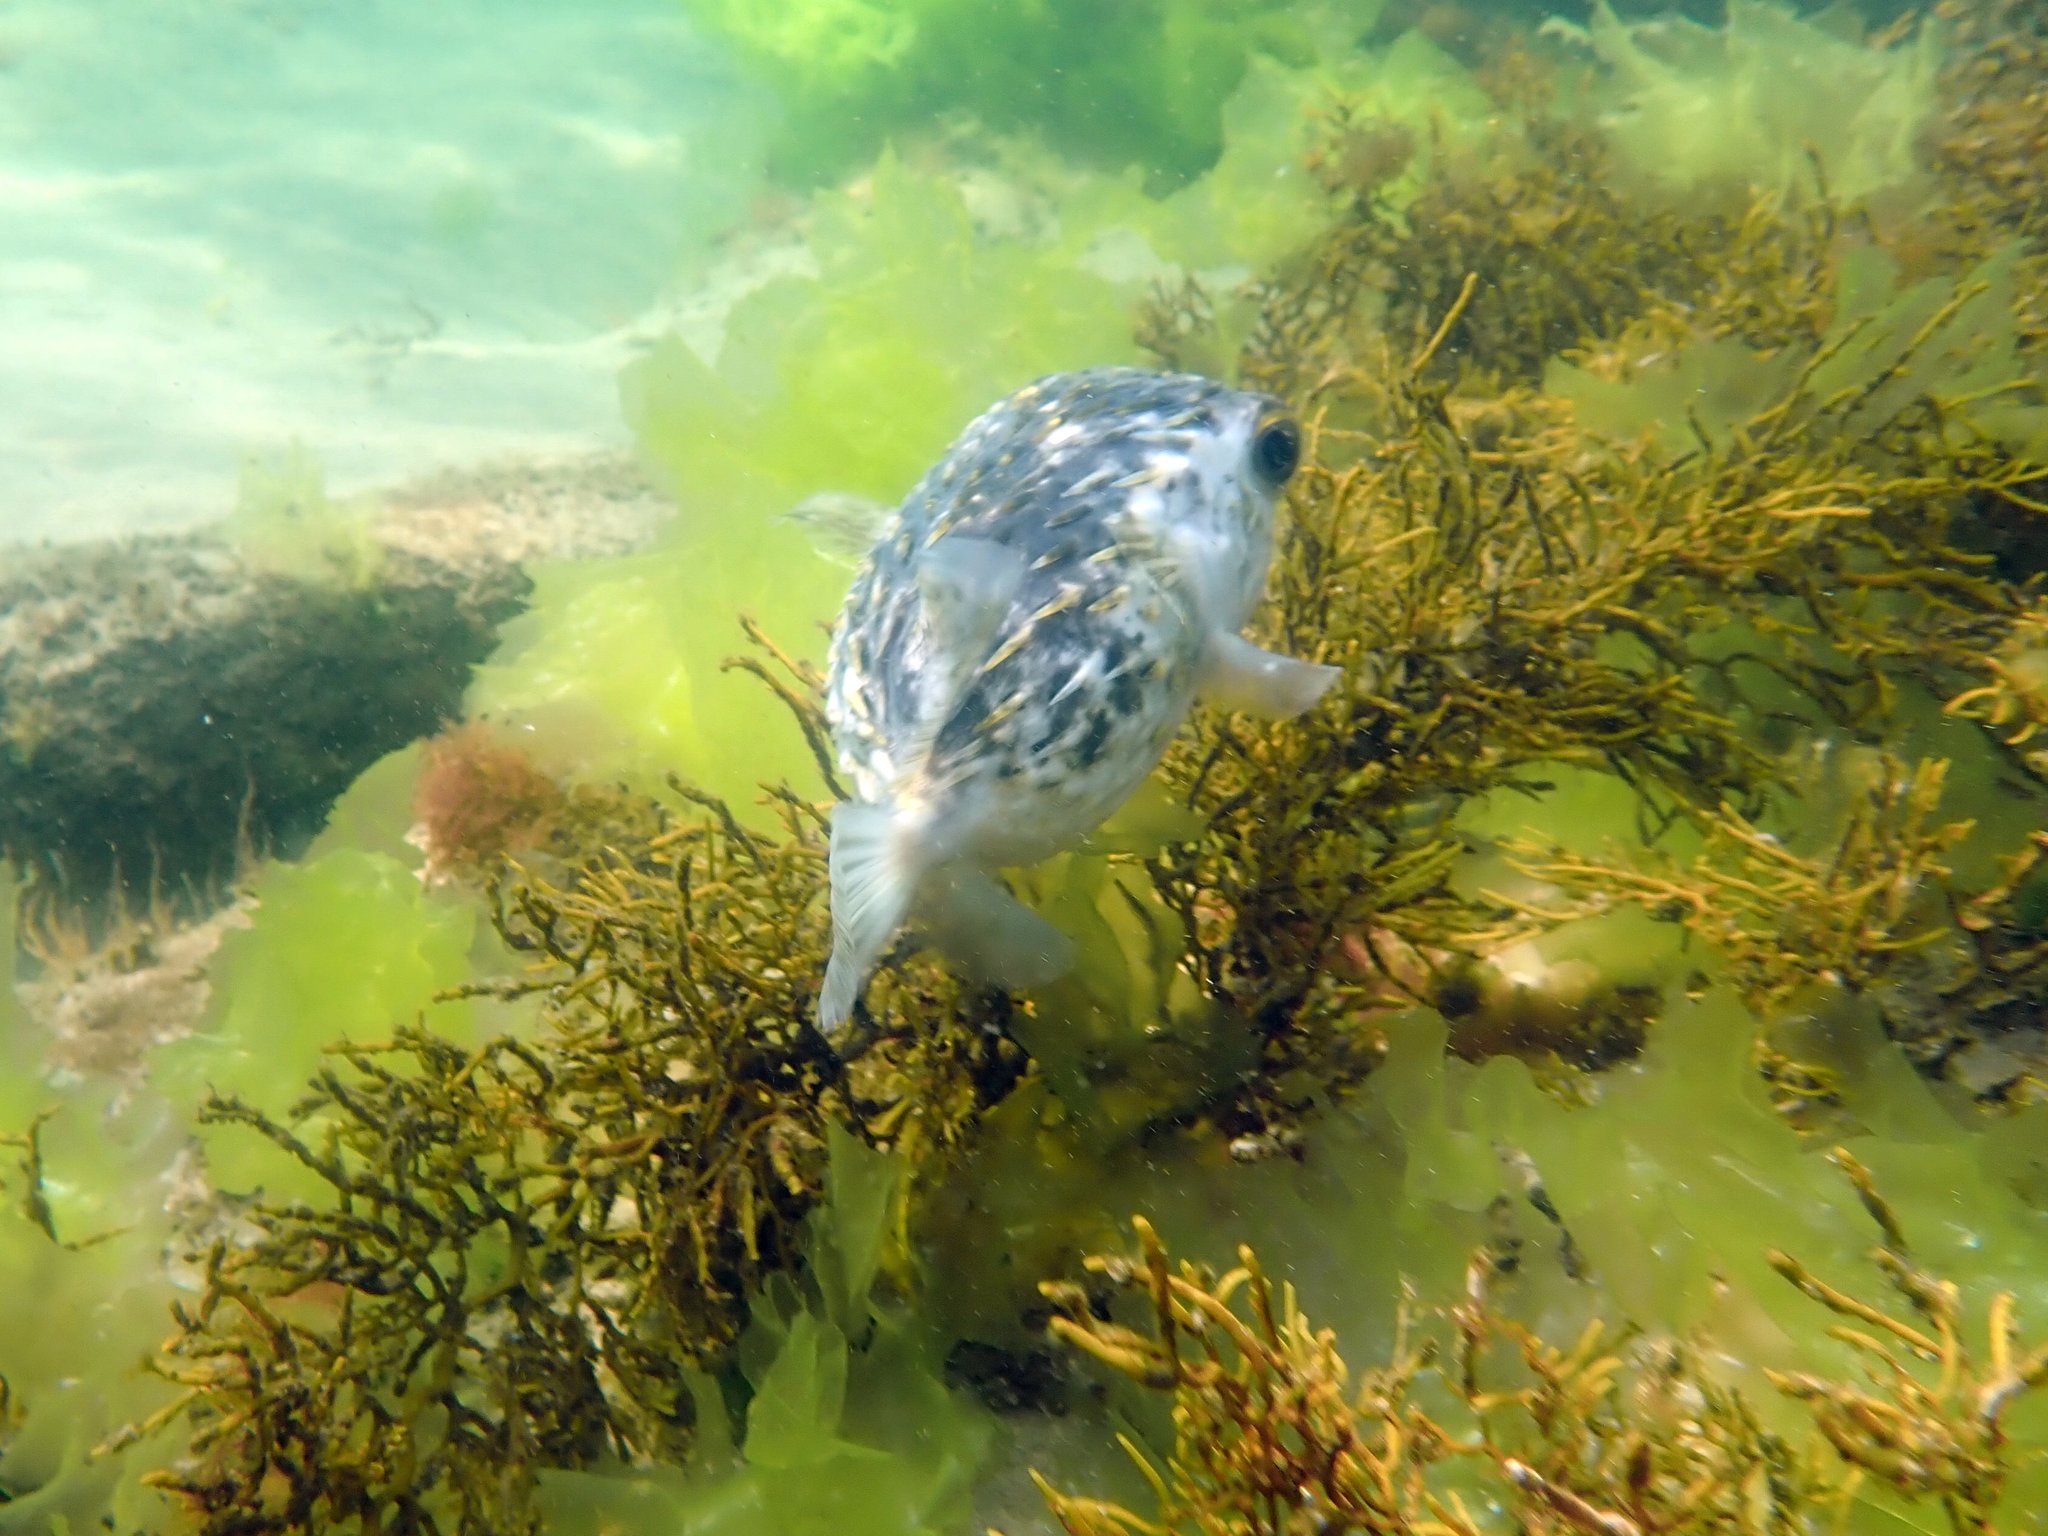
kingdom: Animalia
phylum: Chordata
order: Tetraodontiformes
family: Diodontidae
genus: Diodon
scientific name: Diodon nicthemerus
